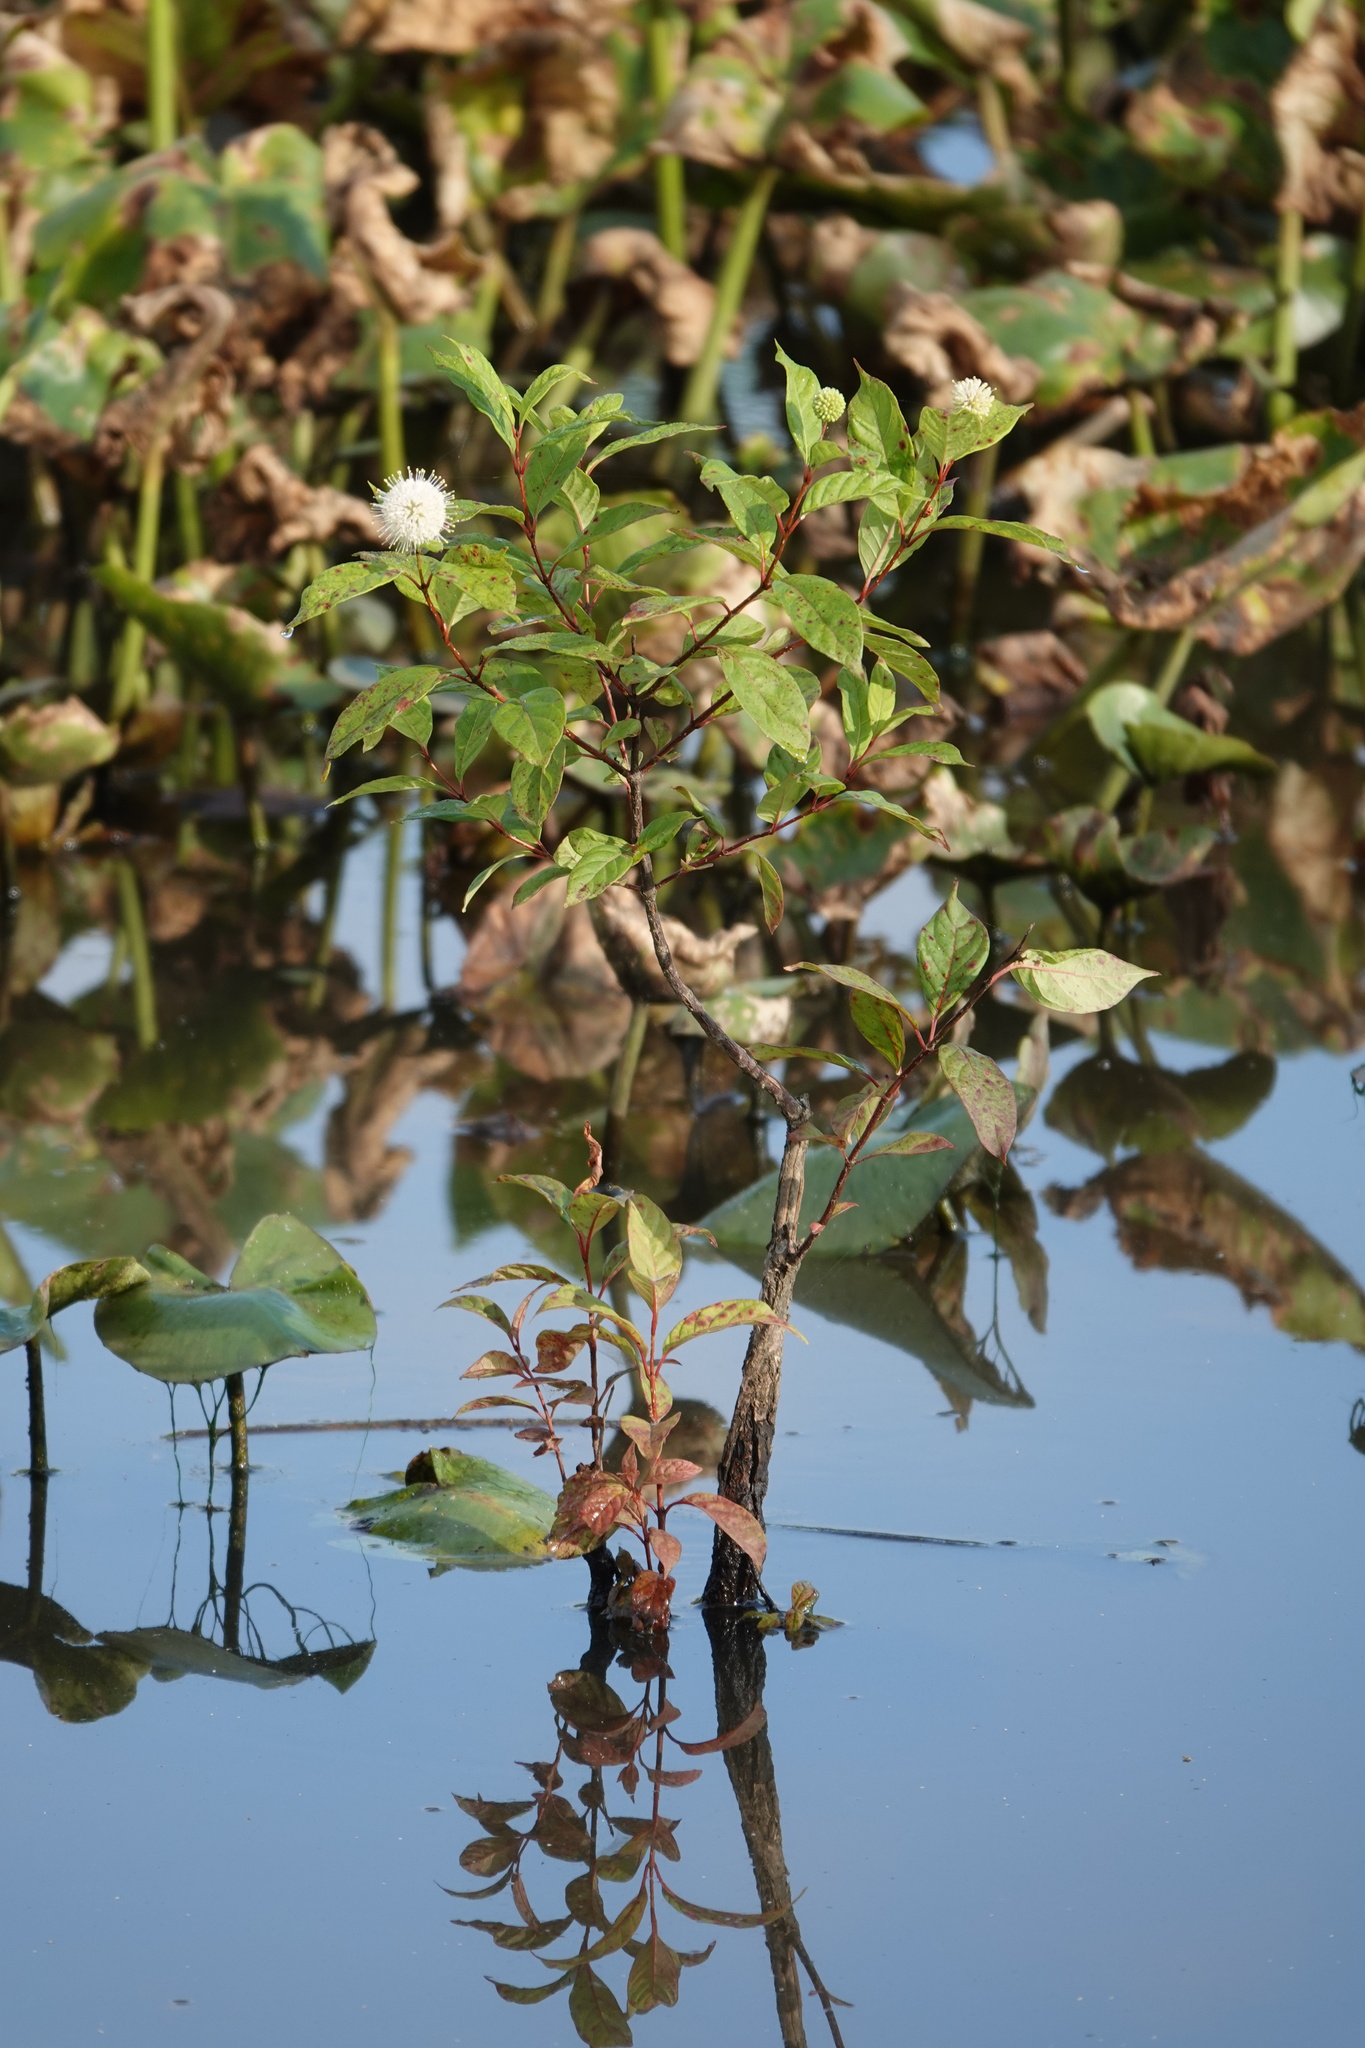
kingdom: Plantae
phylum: Tracheophyta
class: Magnoliopsida
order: Gentianales
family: Rubiaceae
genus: Cephalanthus
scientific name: Cephalanthus occidentalis
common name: Button-willow
